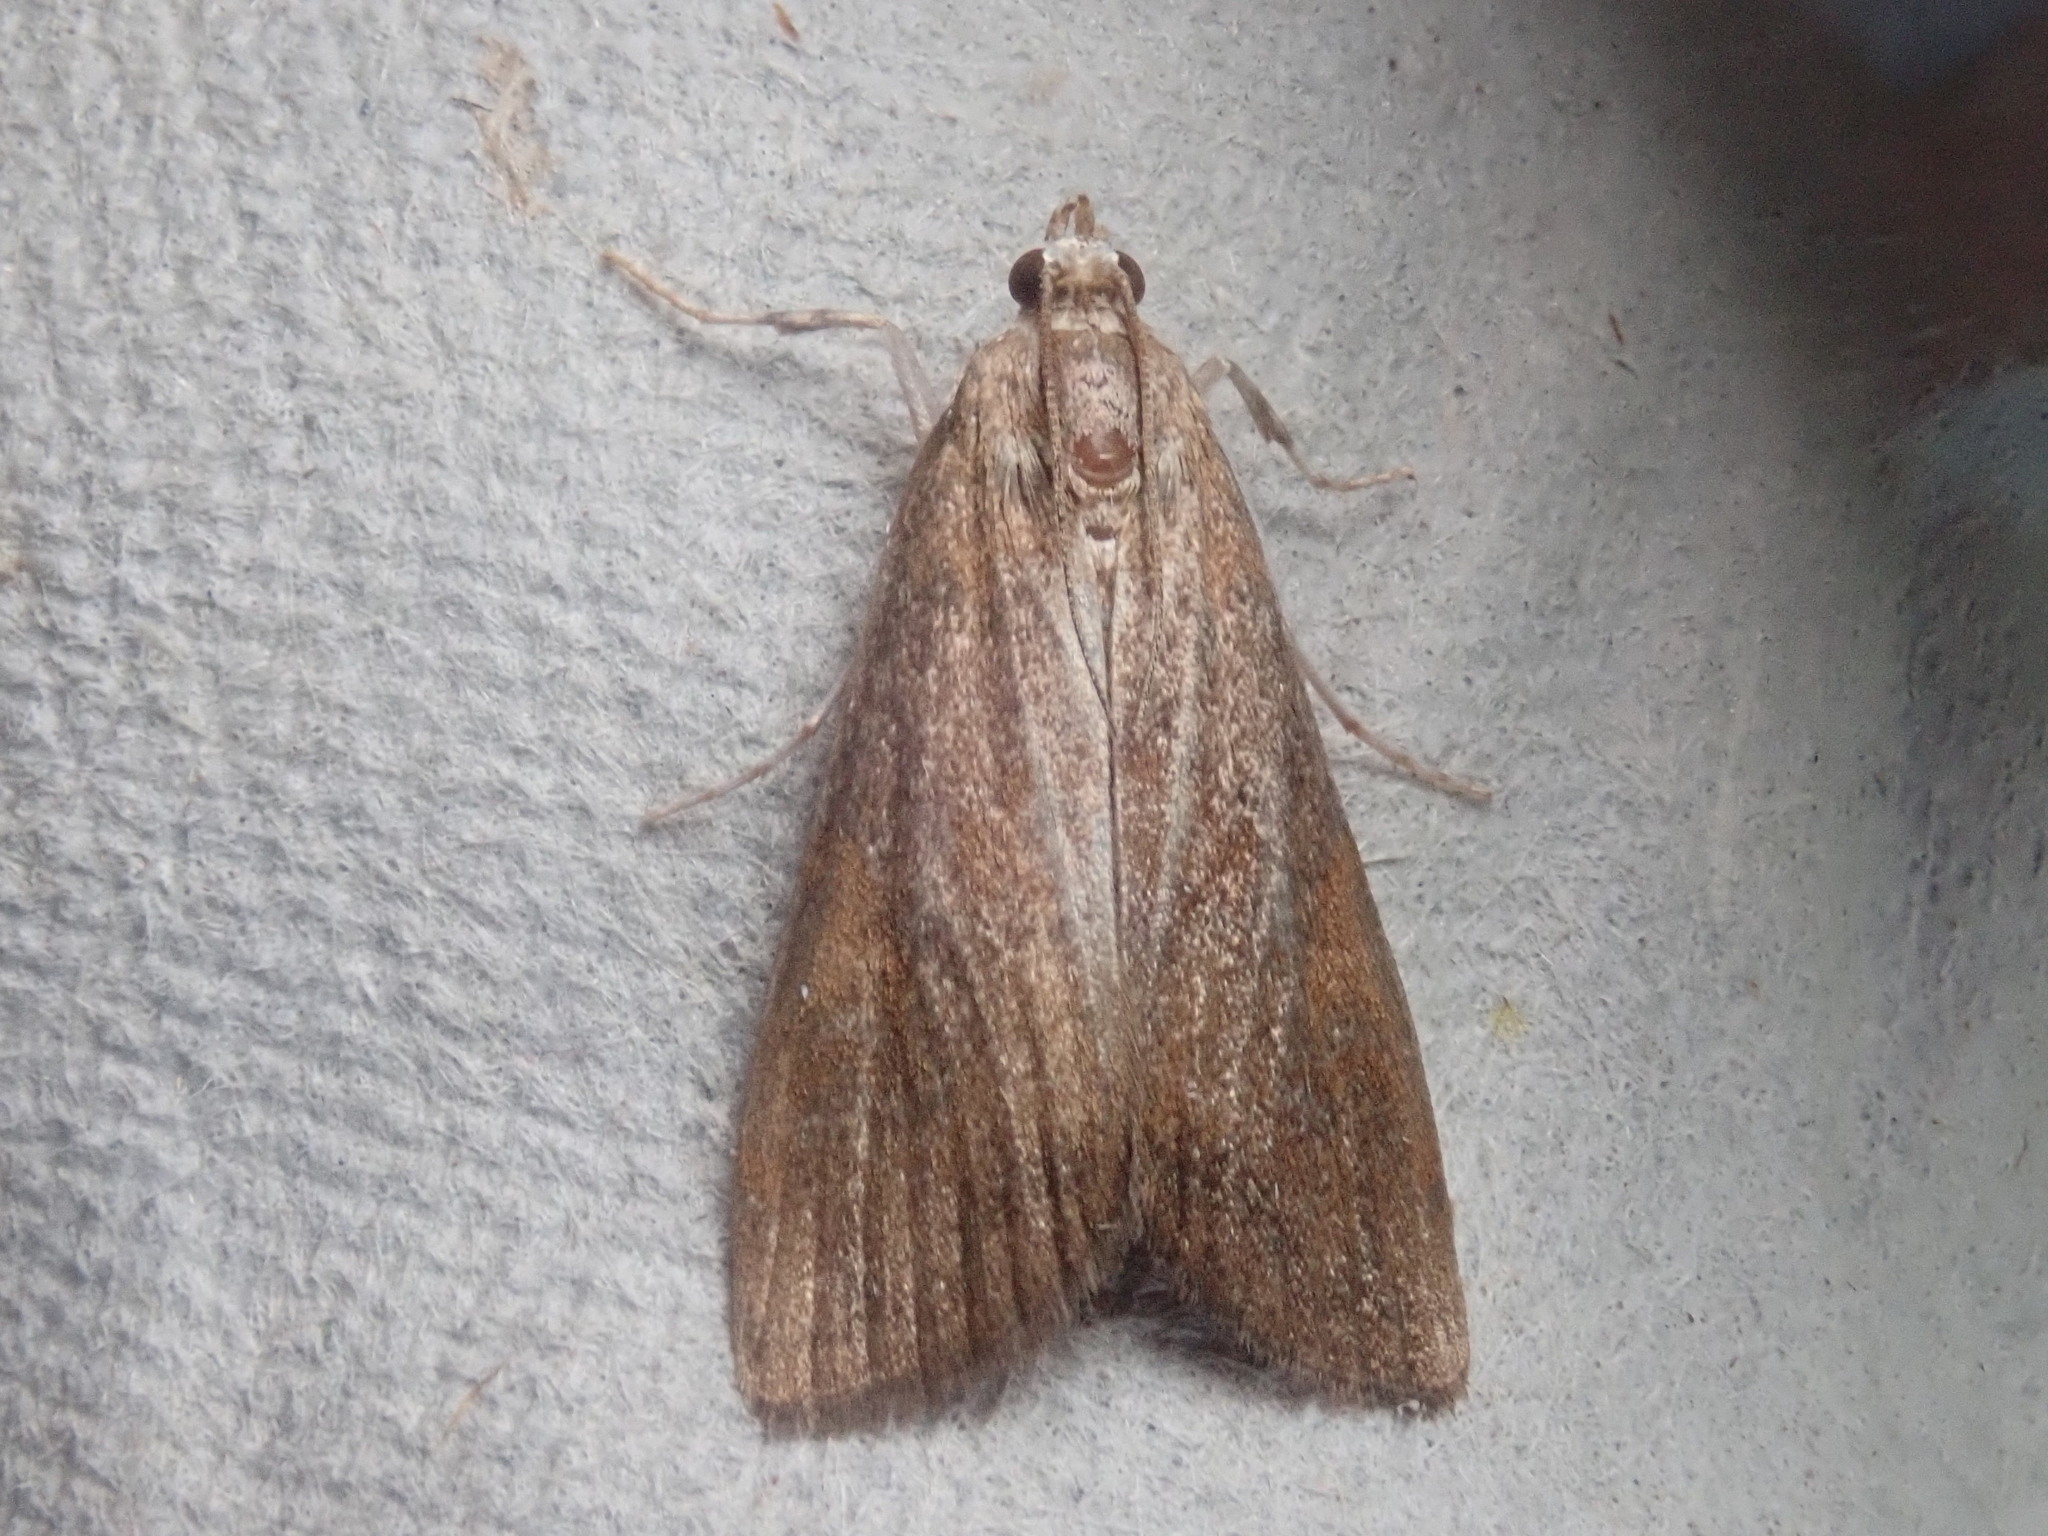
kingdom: Animalia
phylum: Arthropoda
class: Insecta
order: Lepidoptera
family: Crambidae
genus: Elophila
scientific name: Elophila gyralis
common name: Waterlily borer moth
